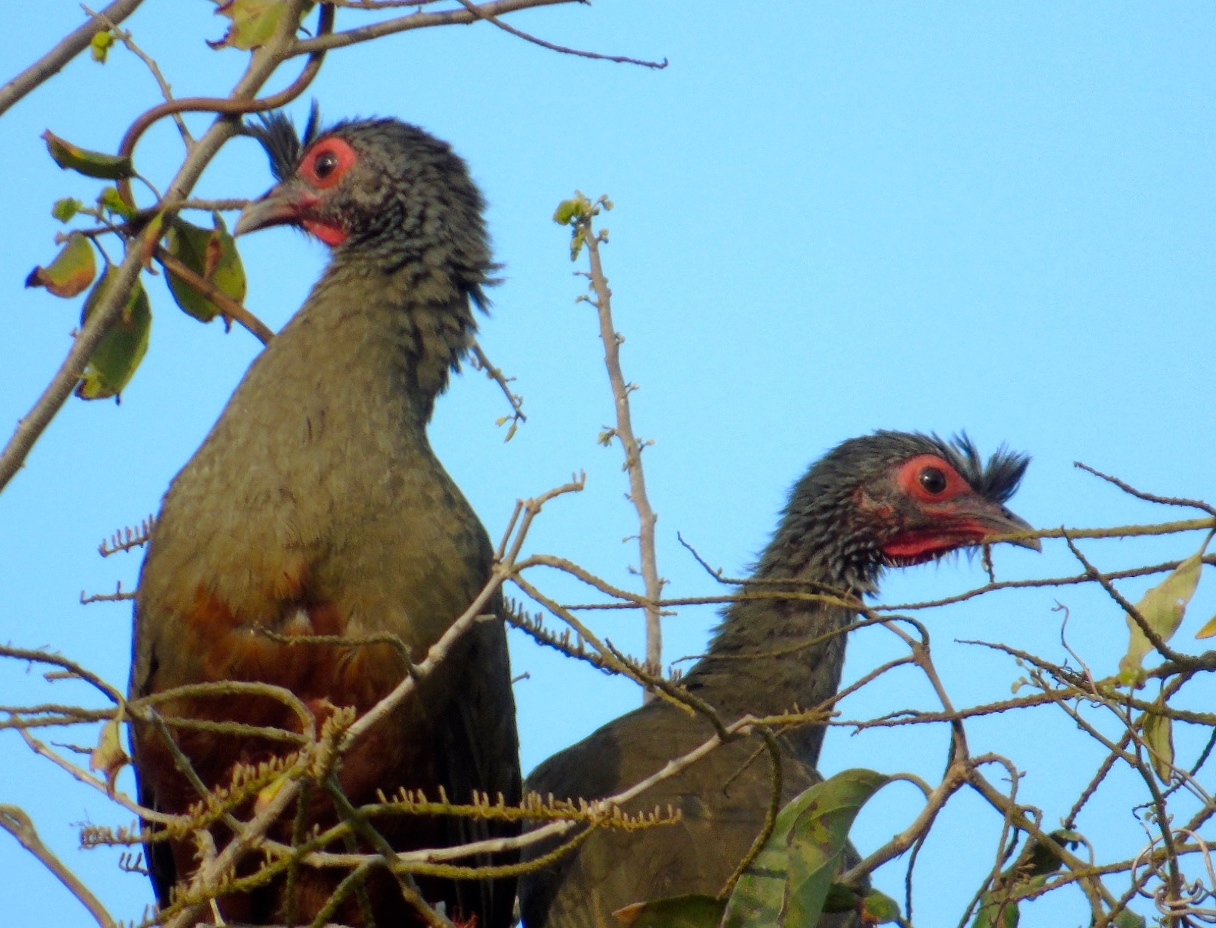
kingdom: Animalia
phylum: Chordata
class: Aves
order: Galliformes
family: Cracidae
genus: Ortalis
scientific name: Ortalis wagleri
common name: Rufous-bellied chachalaca
